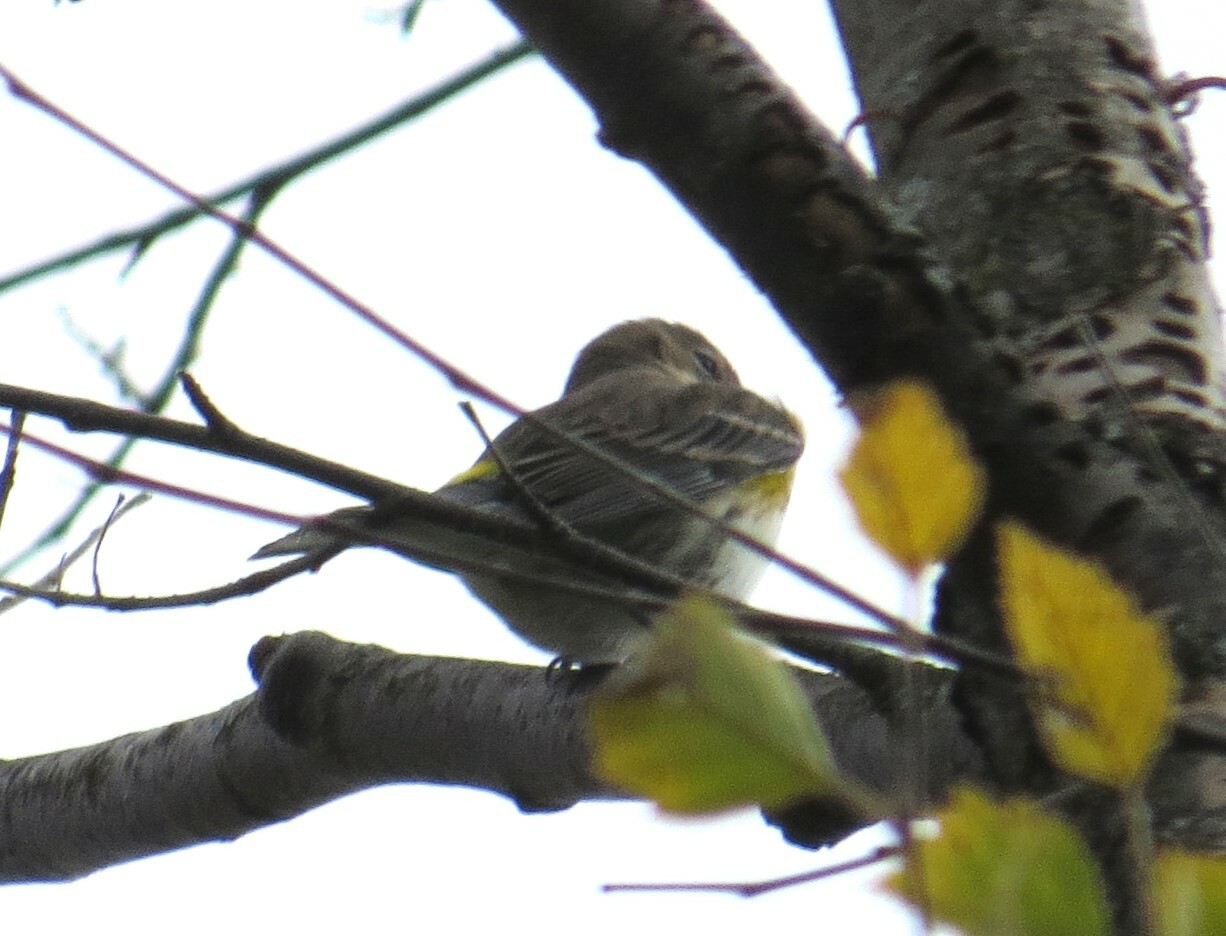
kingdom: Animalia
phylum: Chordata
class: Aves
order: Passeriformes
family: Parulidae
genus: Setophaga
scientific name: Setophaga coronata
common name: Myrtle warbler
